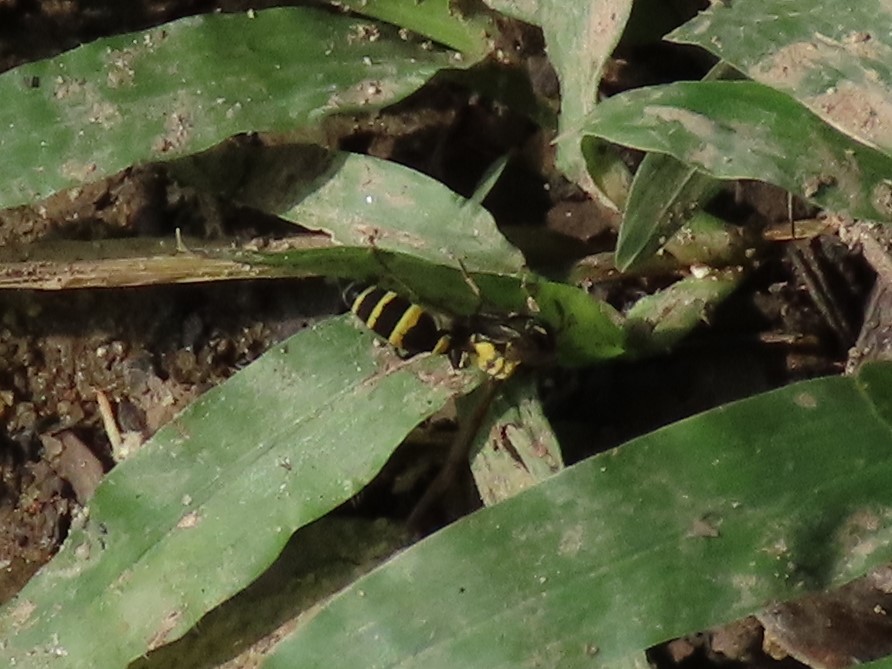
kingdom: Animalia
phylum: Arthropoda
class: Insecta
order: Hymenoptera
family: Vespidae
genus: Myrapetra
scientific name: Myrapetra
